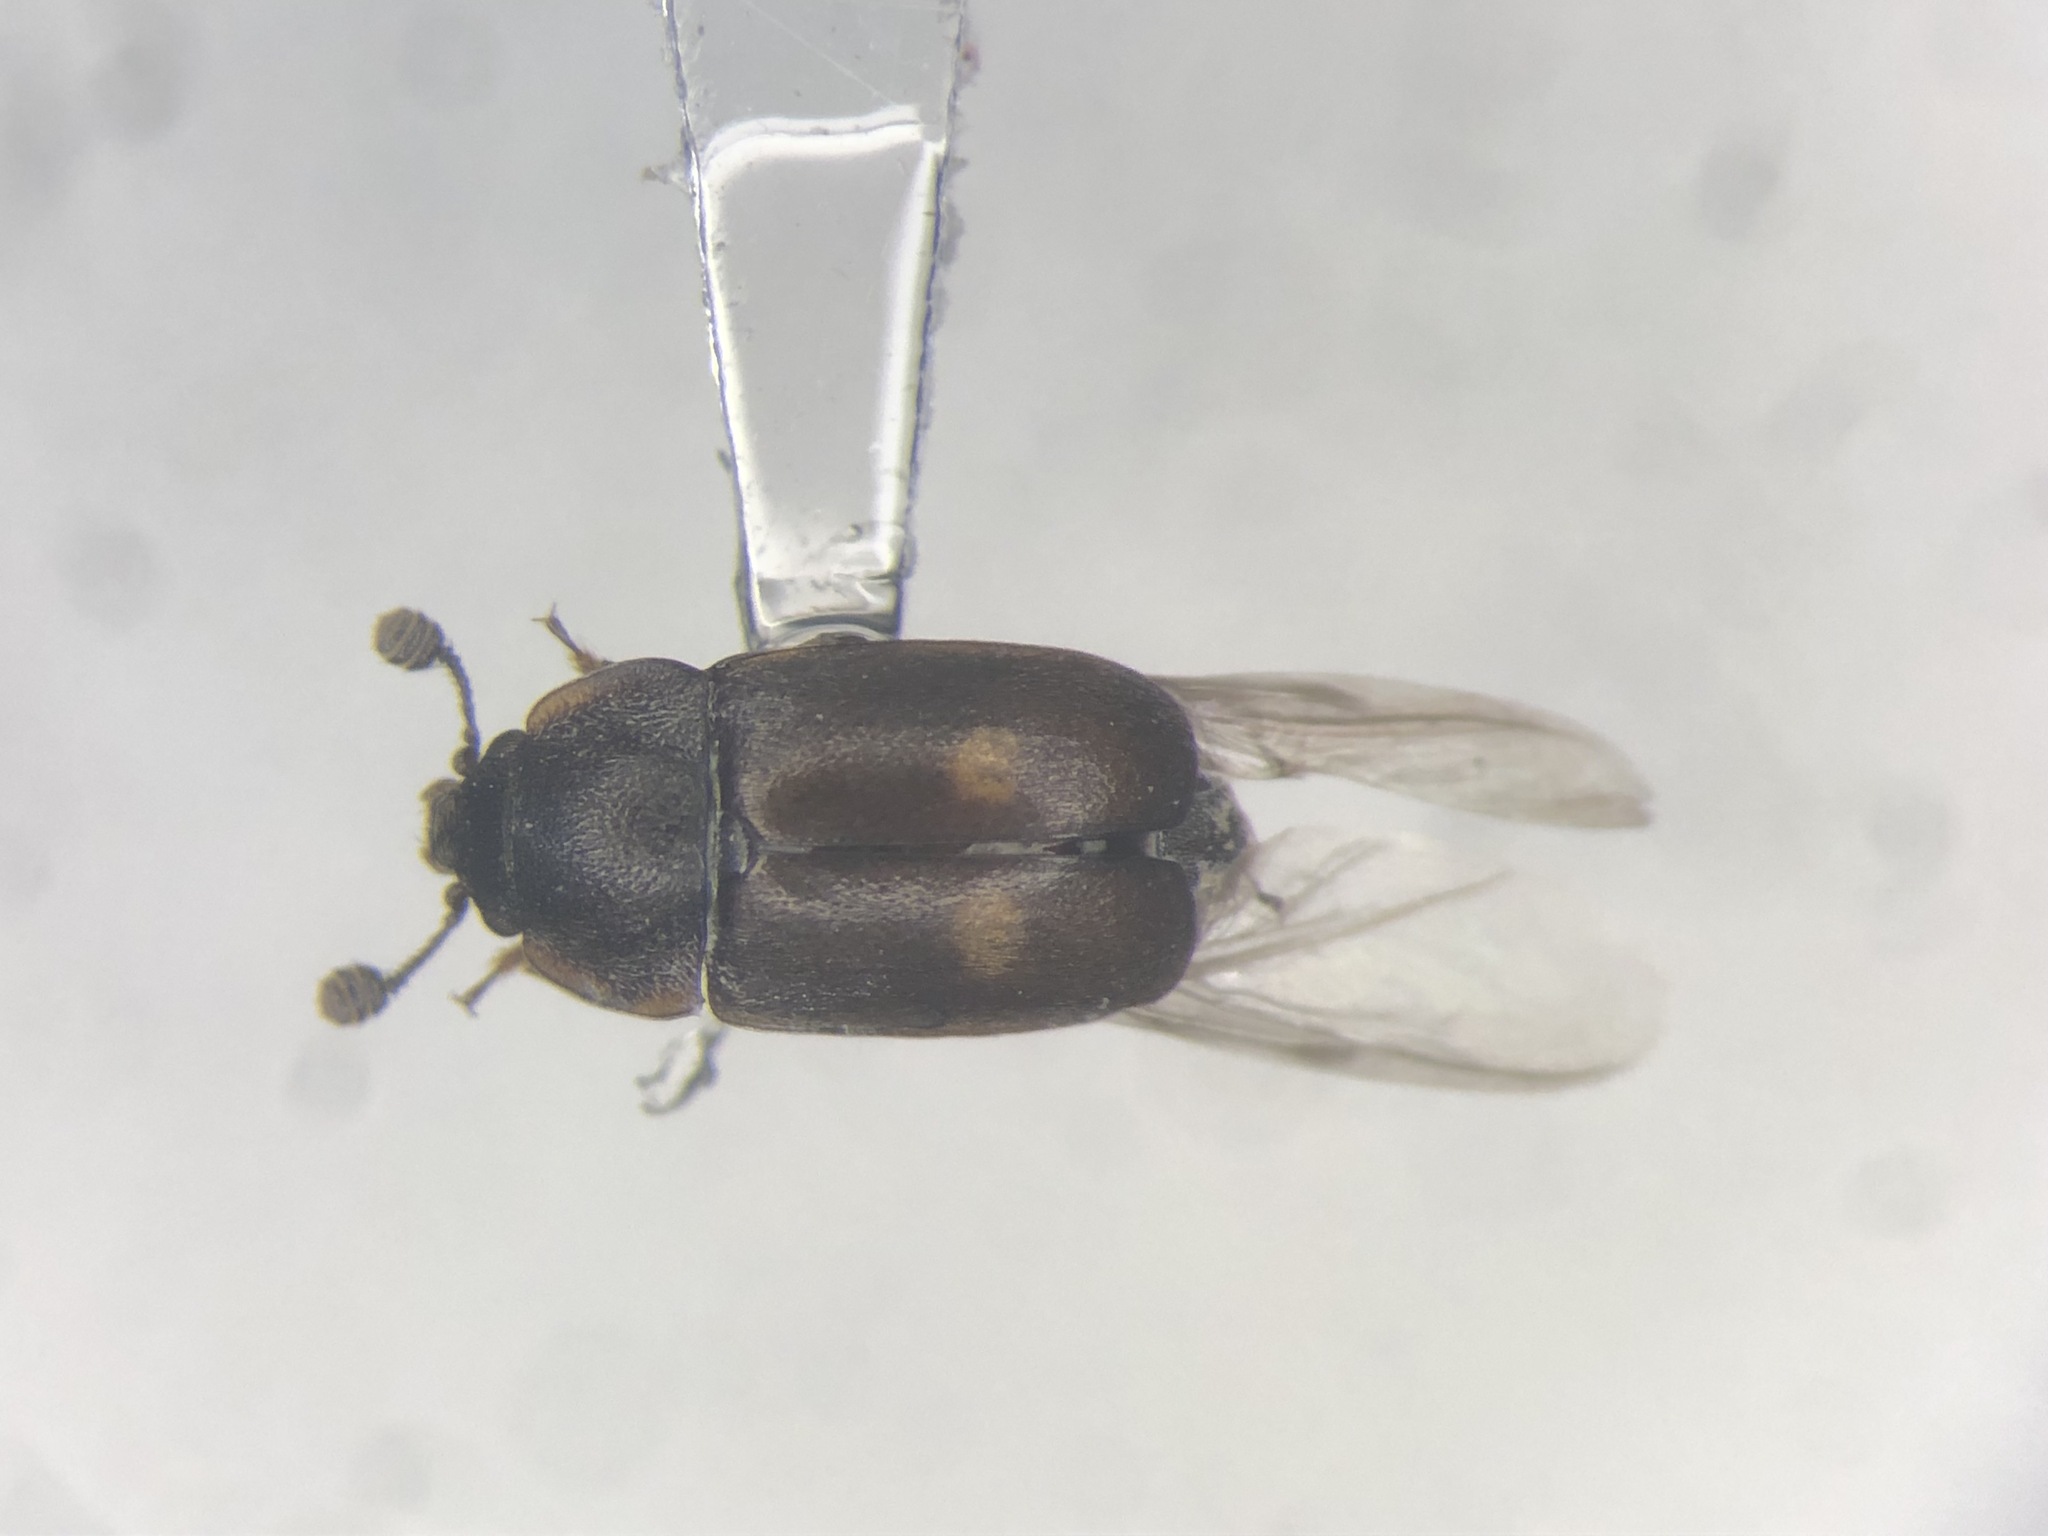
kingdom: Animalia
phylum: Arthropoda
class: Insecta
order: Coleoptera
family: Nitidulidae
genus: Nitidula
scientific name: Nitidula bipunctata
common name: Two spotted carrion beetle
